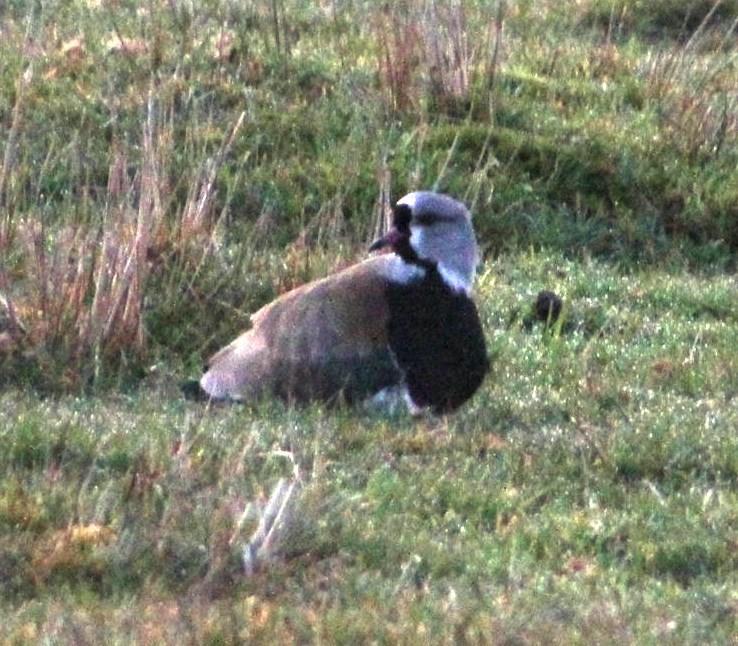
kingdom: Animalia
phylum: Chordata
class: Aves
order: Charadriiformes
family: Charadriidae
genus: Vanellus
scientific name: Vanellus chilensis
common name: Southern lapwing
